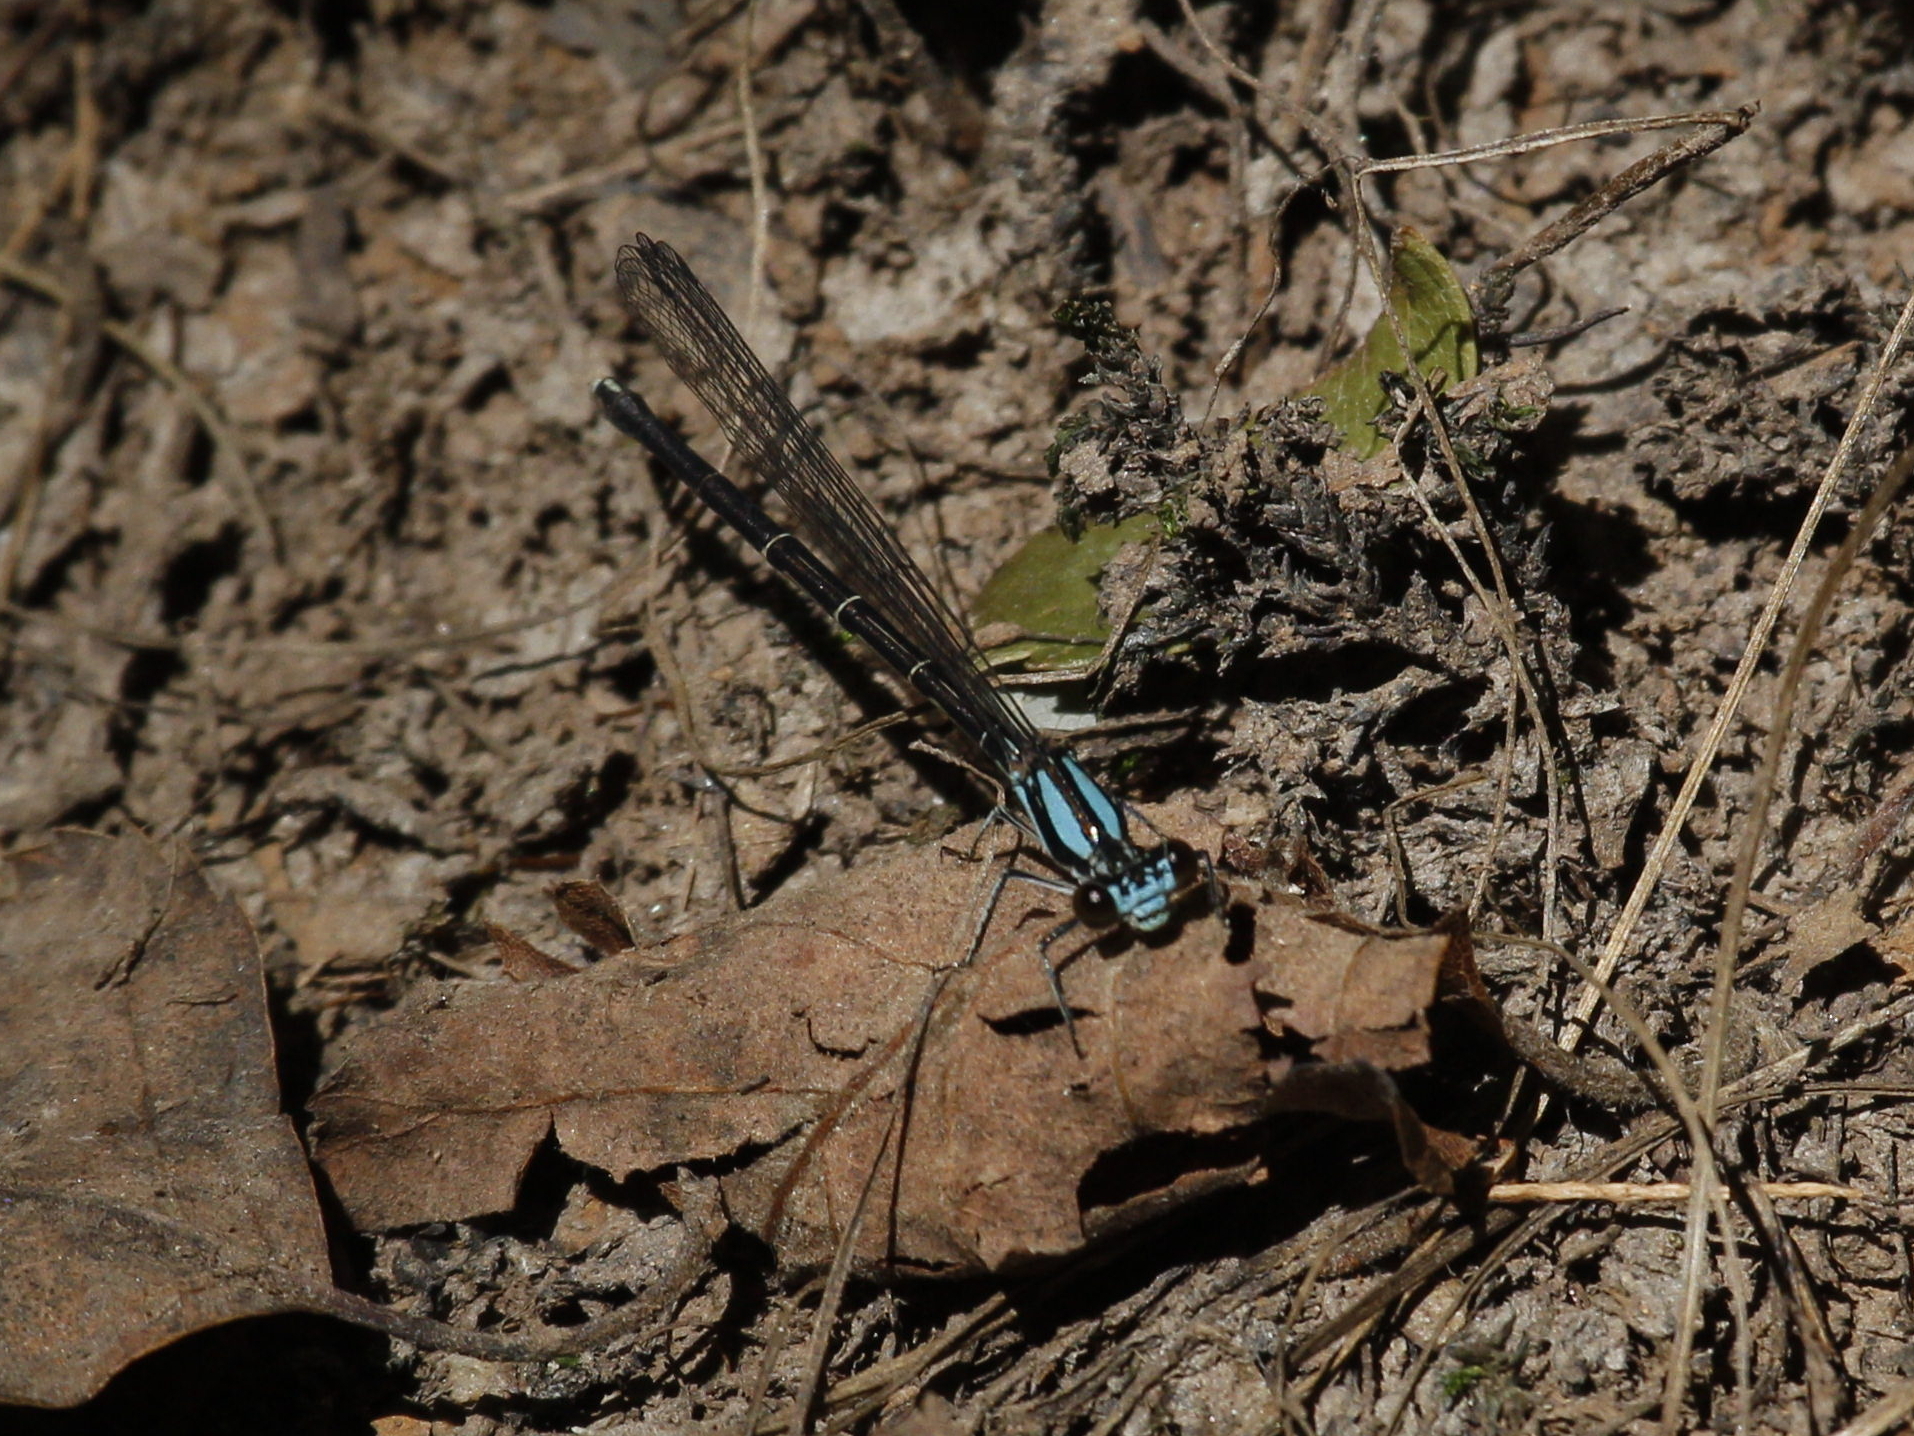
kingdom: Animalia
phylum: Arthropoda
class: Insecta
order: Odonata
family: Coenagrionidae
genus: Argia
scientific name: Argia tibialis
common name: Blue-tipped dancer
